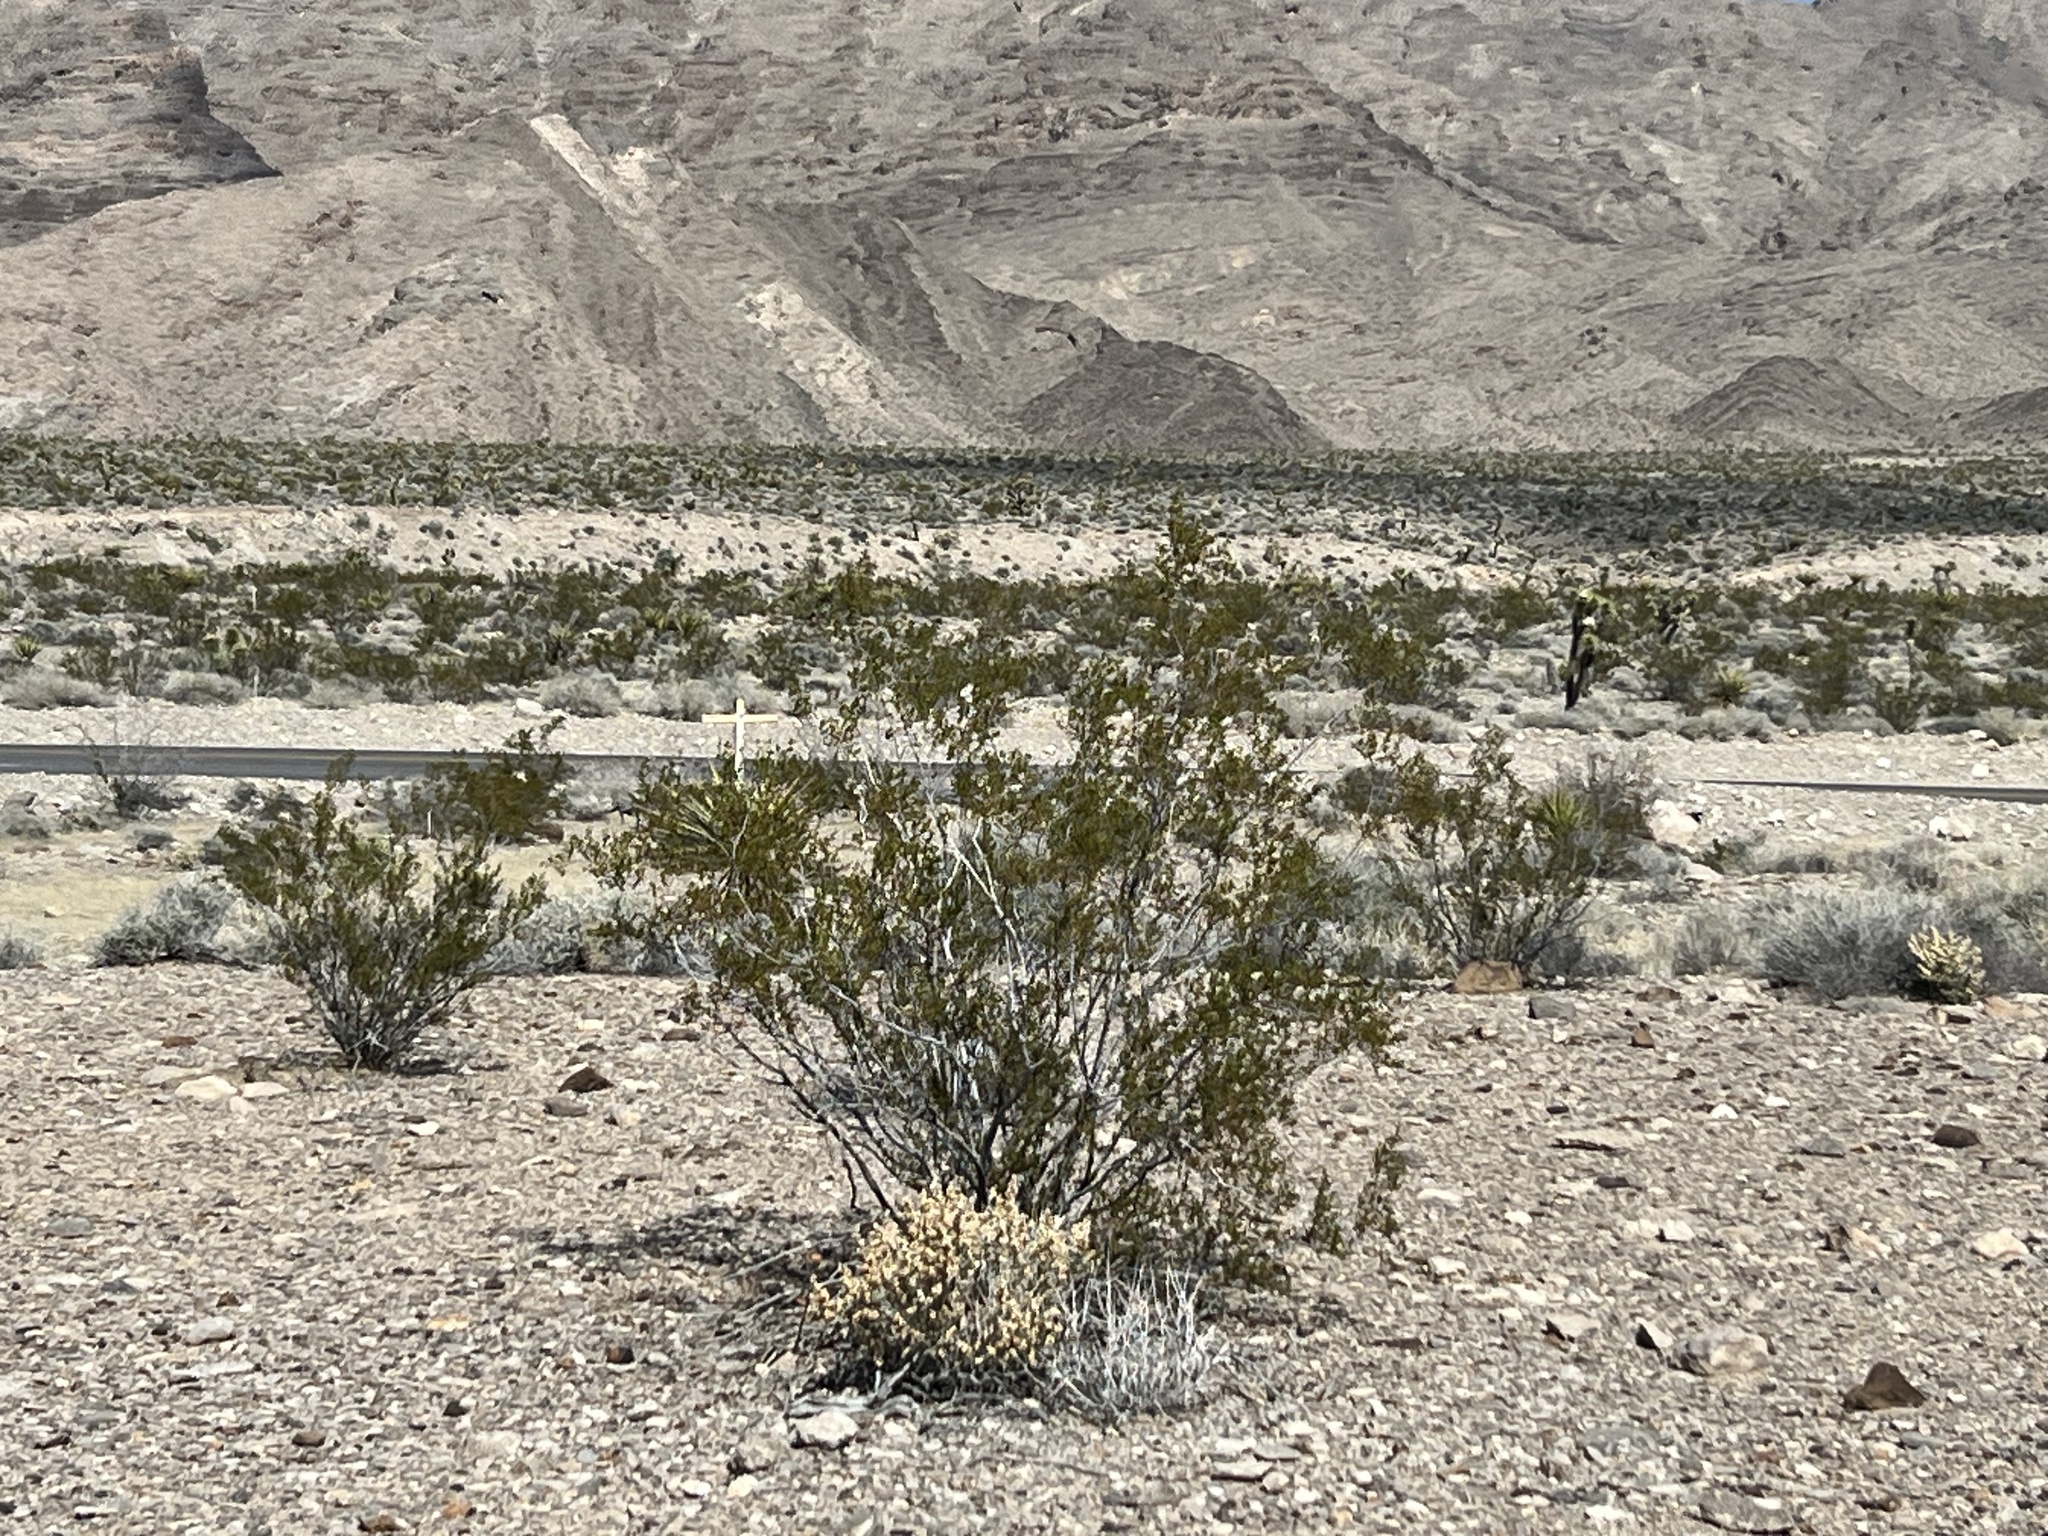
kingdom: Plantae
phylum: Tracheophyta
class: Magnoliopsida
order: Zygophyllales
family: Zygophyllaceae
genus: Larrea
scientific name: Larrea tridentata
